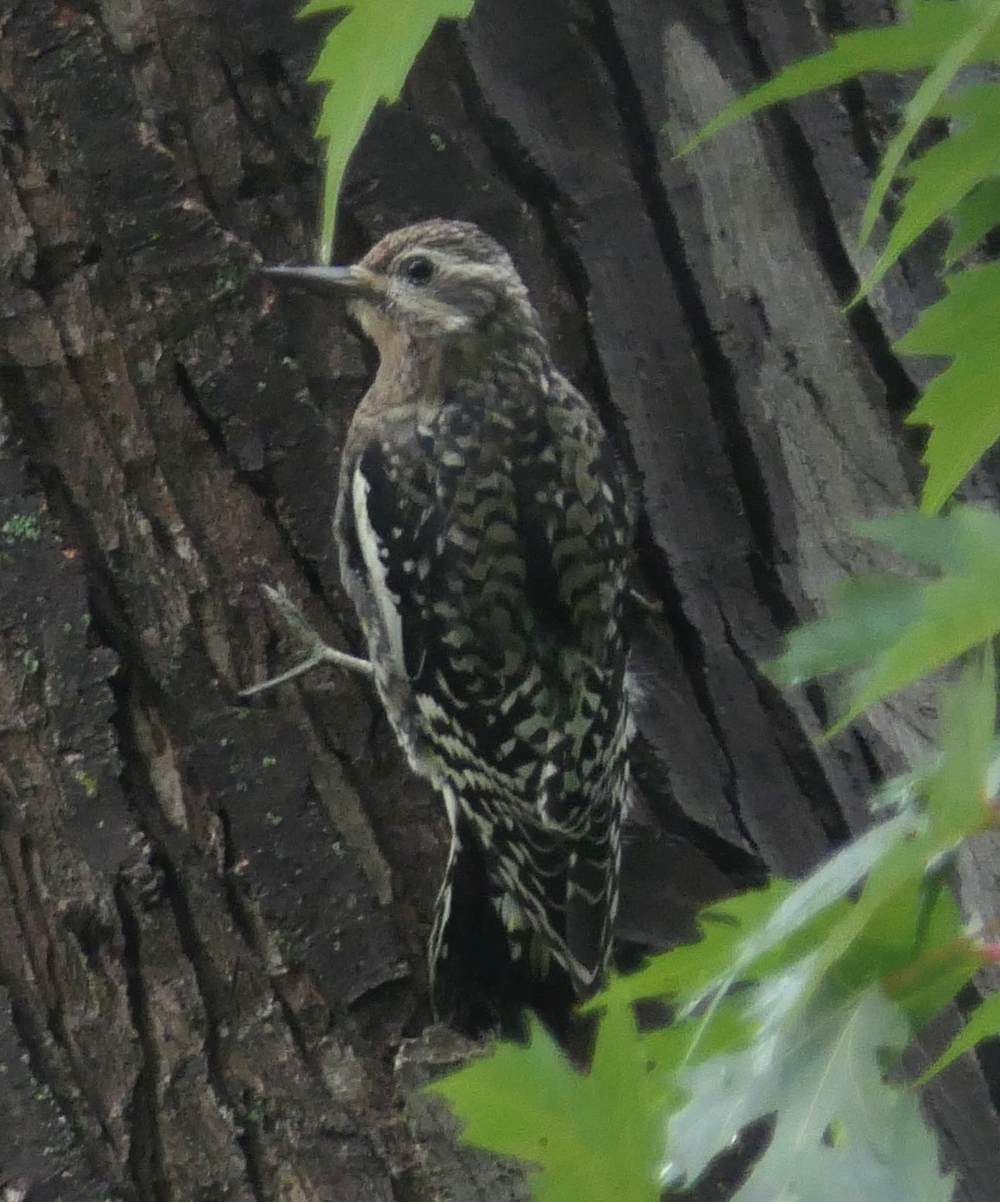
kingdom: Animalia
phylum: Chordata
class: Aves
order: Piciformes
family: Picidae
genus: Sphyrapicus
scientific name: Sphyrapicus varius
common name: Yellow-bellied sapsucker
